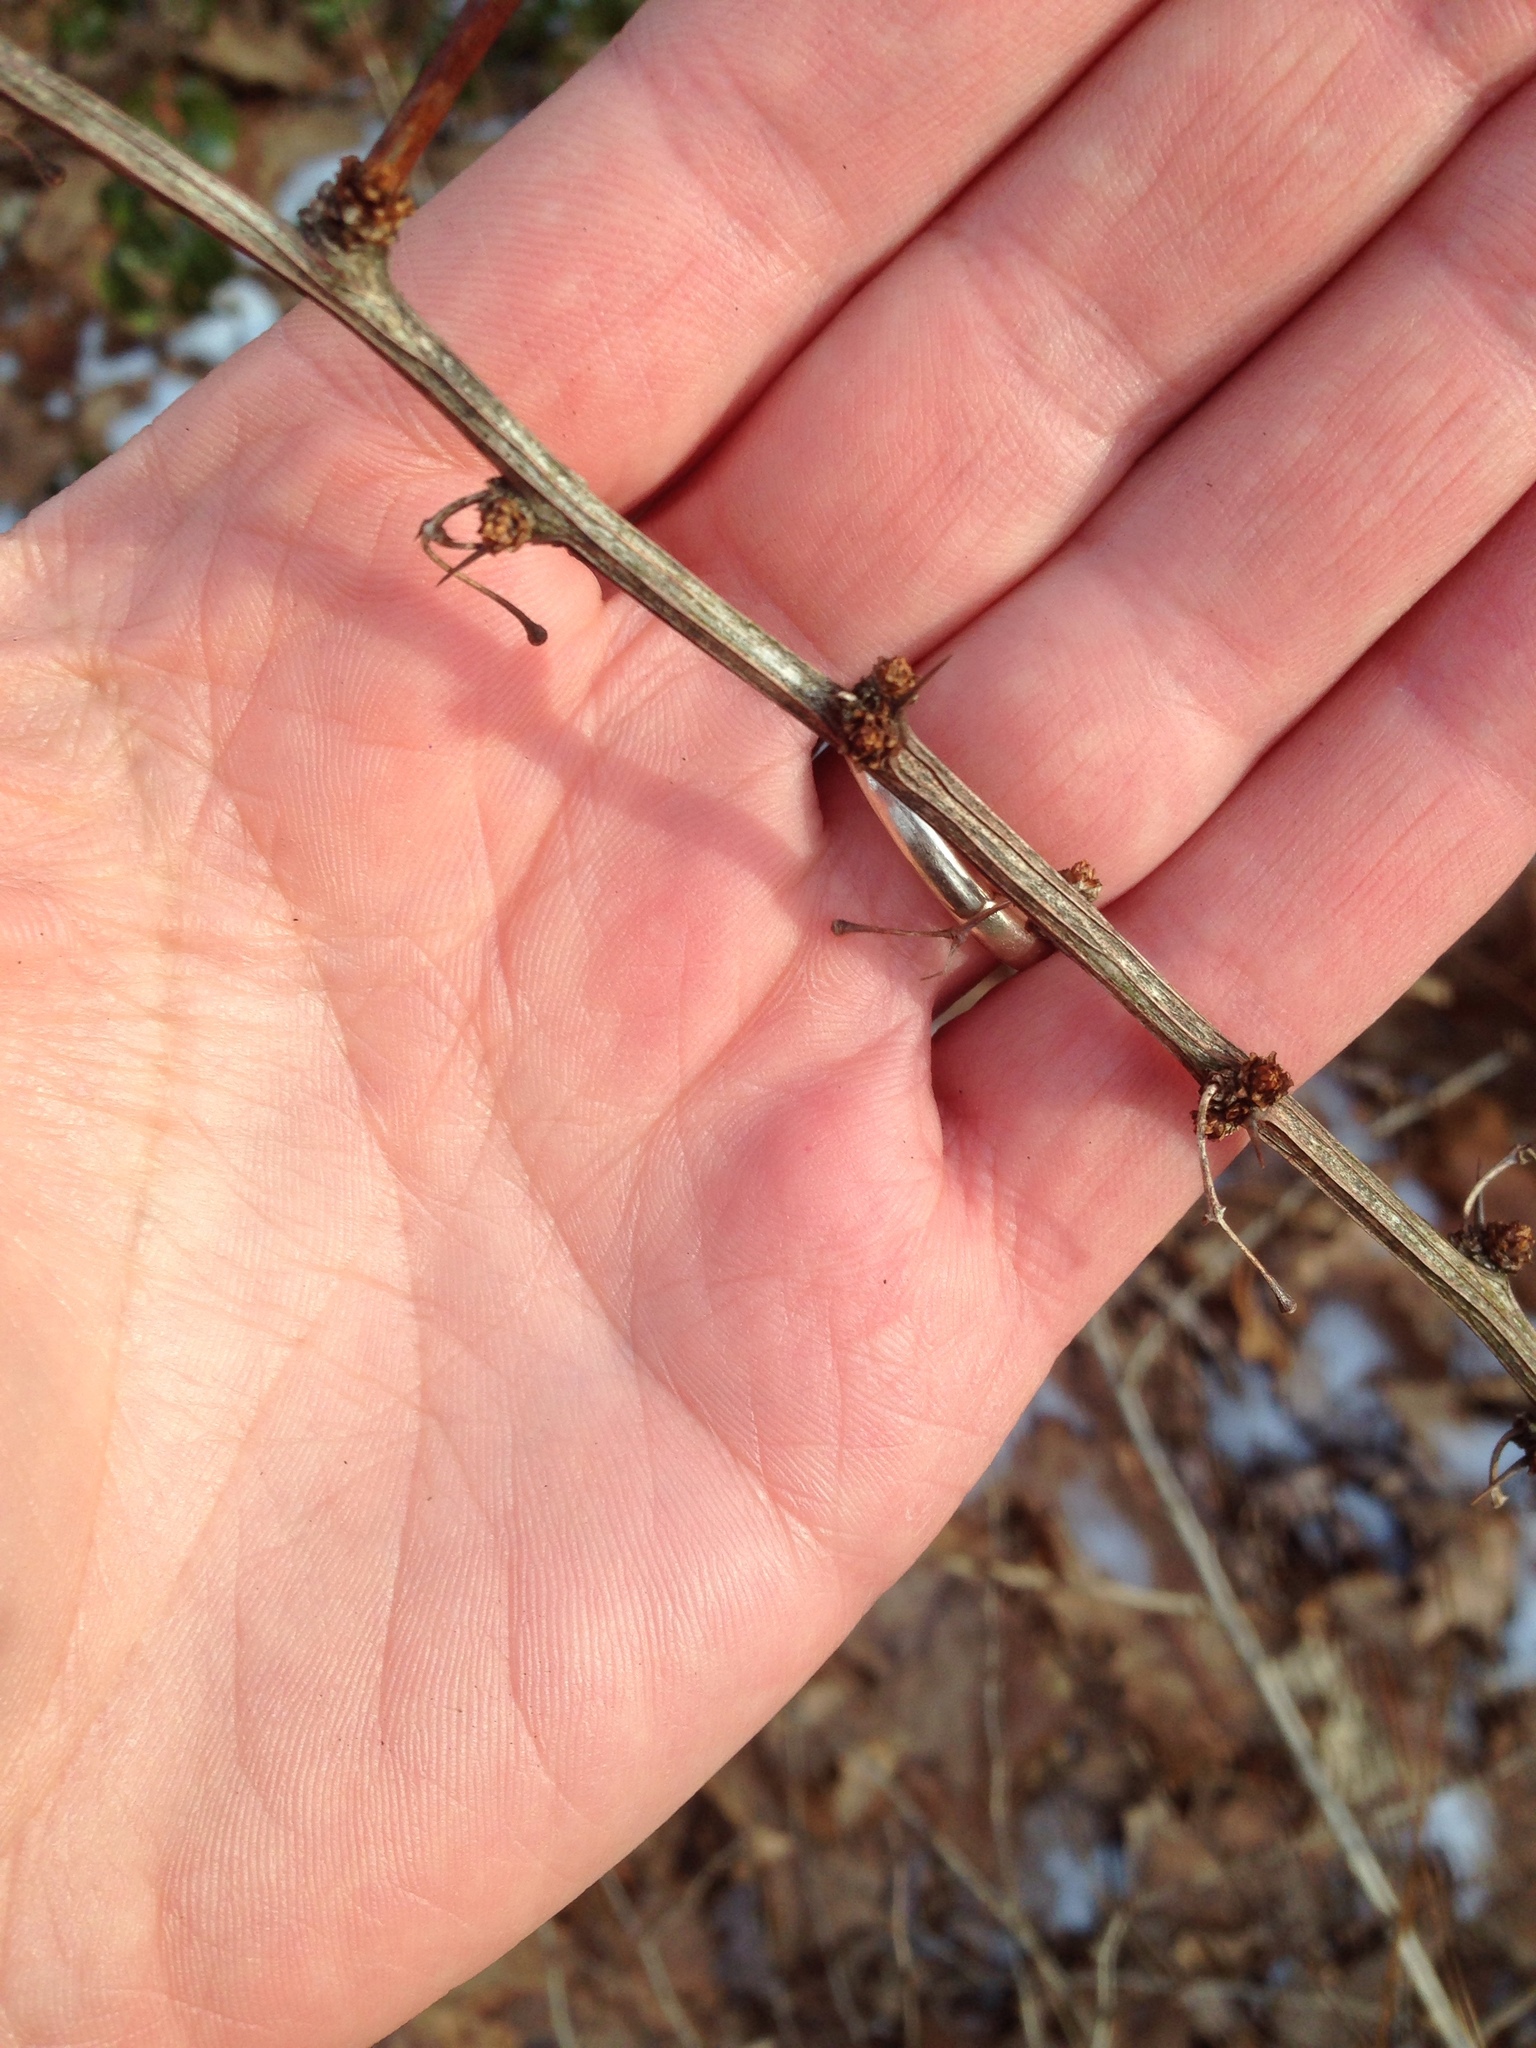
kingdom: Plantae
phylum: Tracheophyta
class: Magnoliopsida
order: Ranunculales
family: Berberidaceae
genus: Berberis
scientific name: Berberis thunbergii
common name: Japanese barberry
